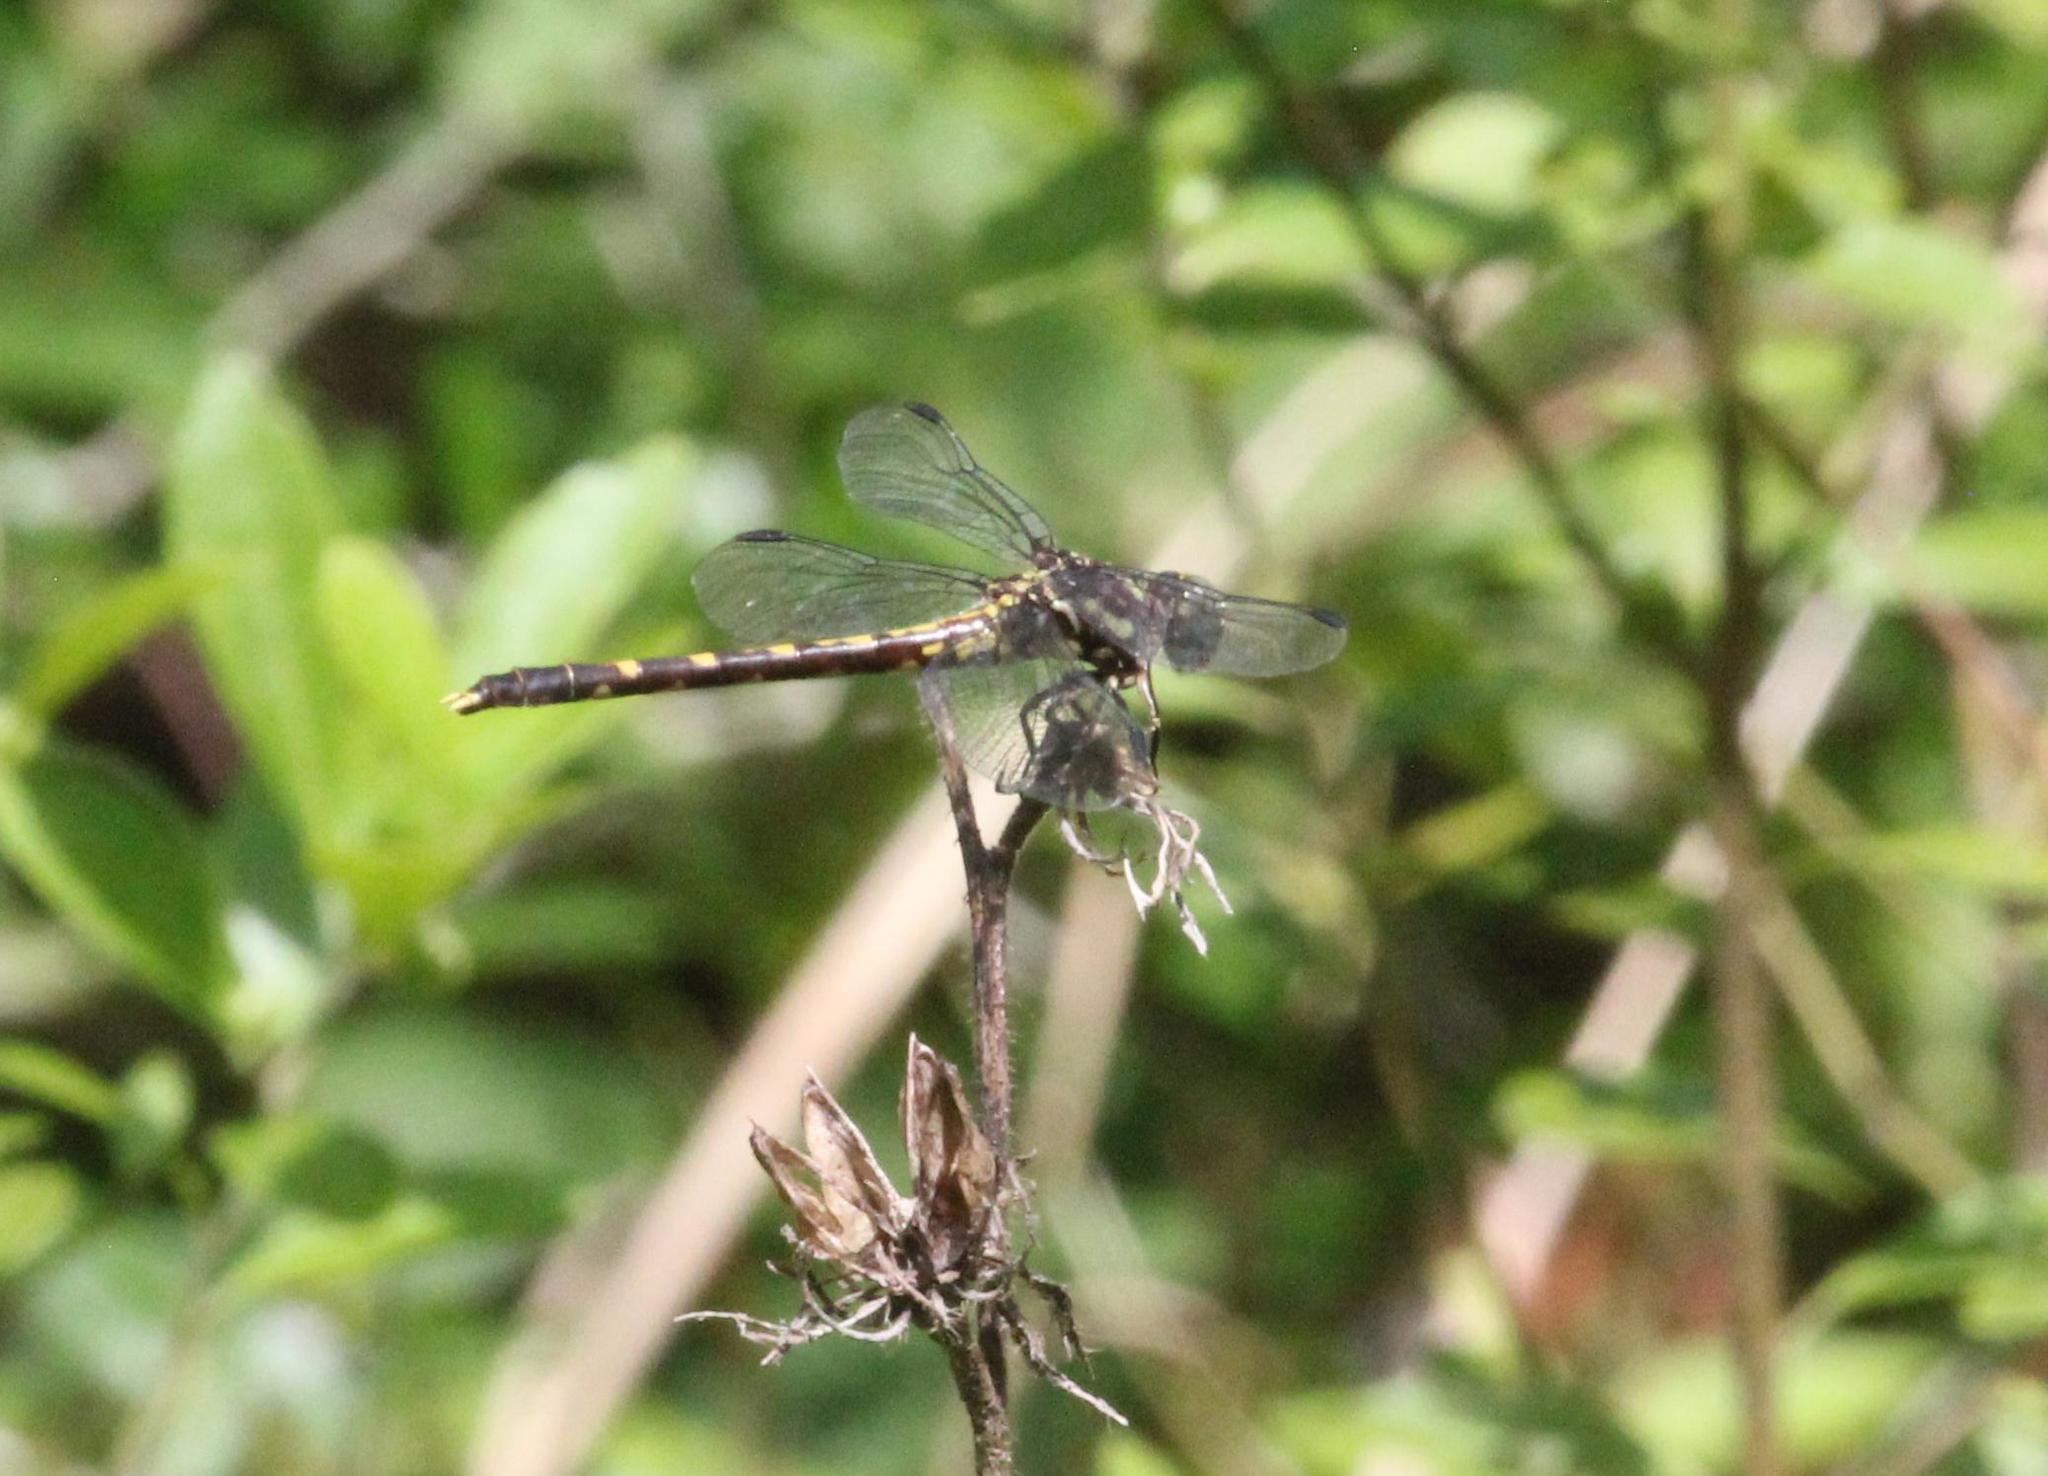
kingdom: Animalia
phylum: Arthropoda
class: Insecta
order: Odonata
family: Gomphidae
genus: Progomphus
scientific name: Progomphus obscurus
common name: Common sanddragon
